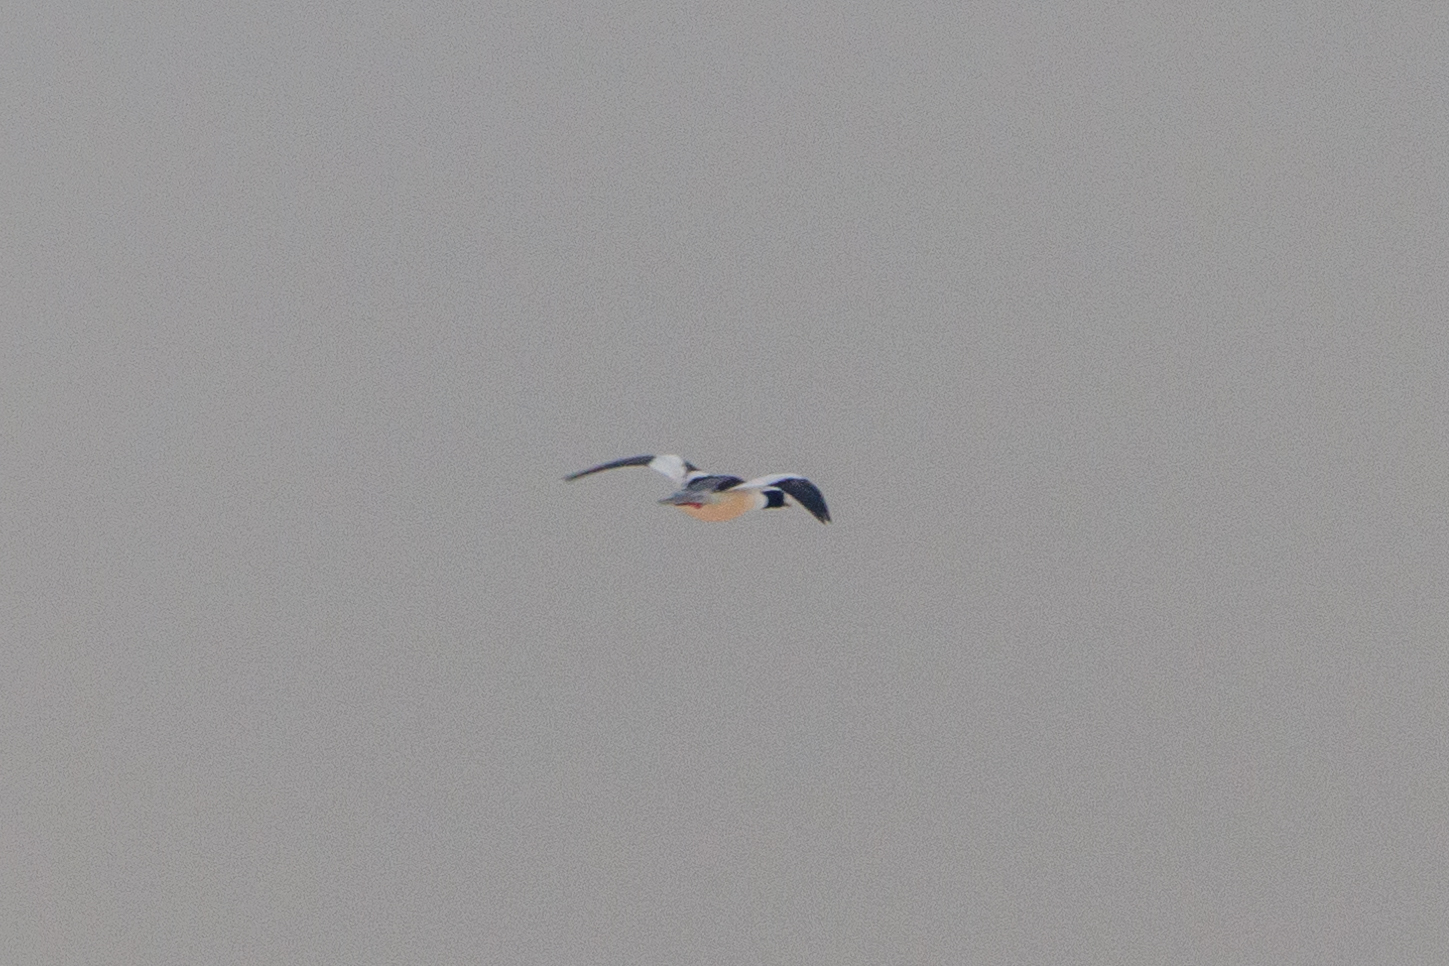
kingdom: Animalia
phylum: Chordata
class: Aves
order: Anseriformes
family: Anatidae
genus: Mergus
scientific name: Mergus merganser
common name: Common merganser
